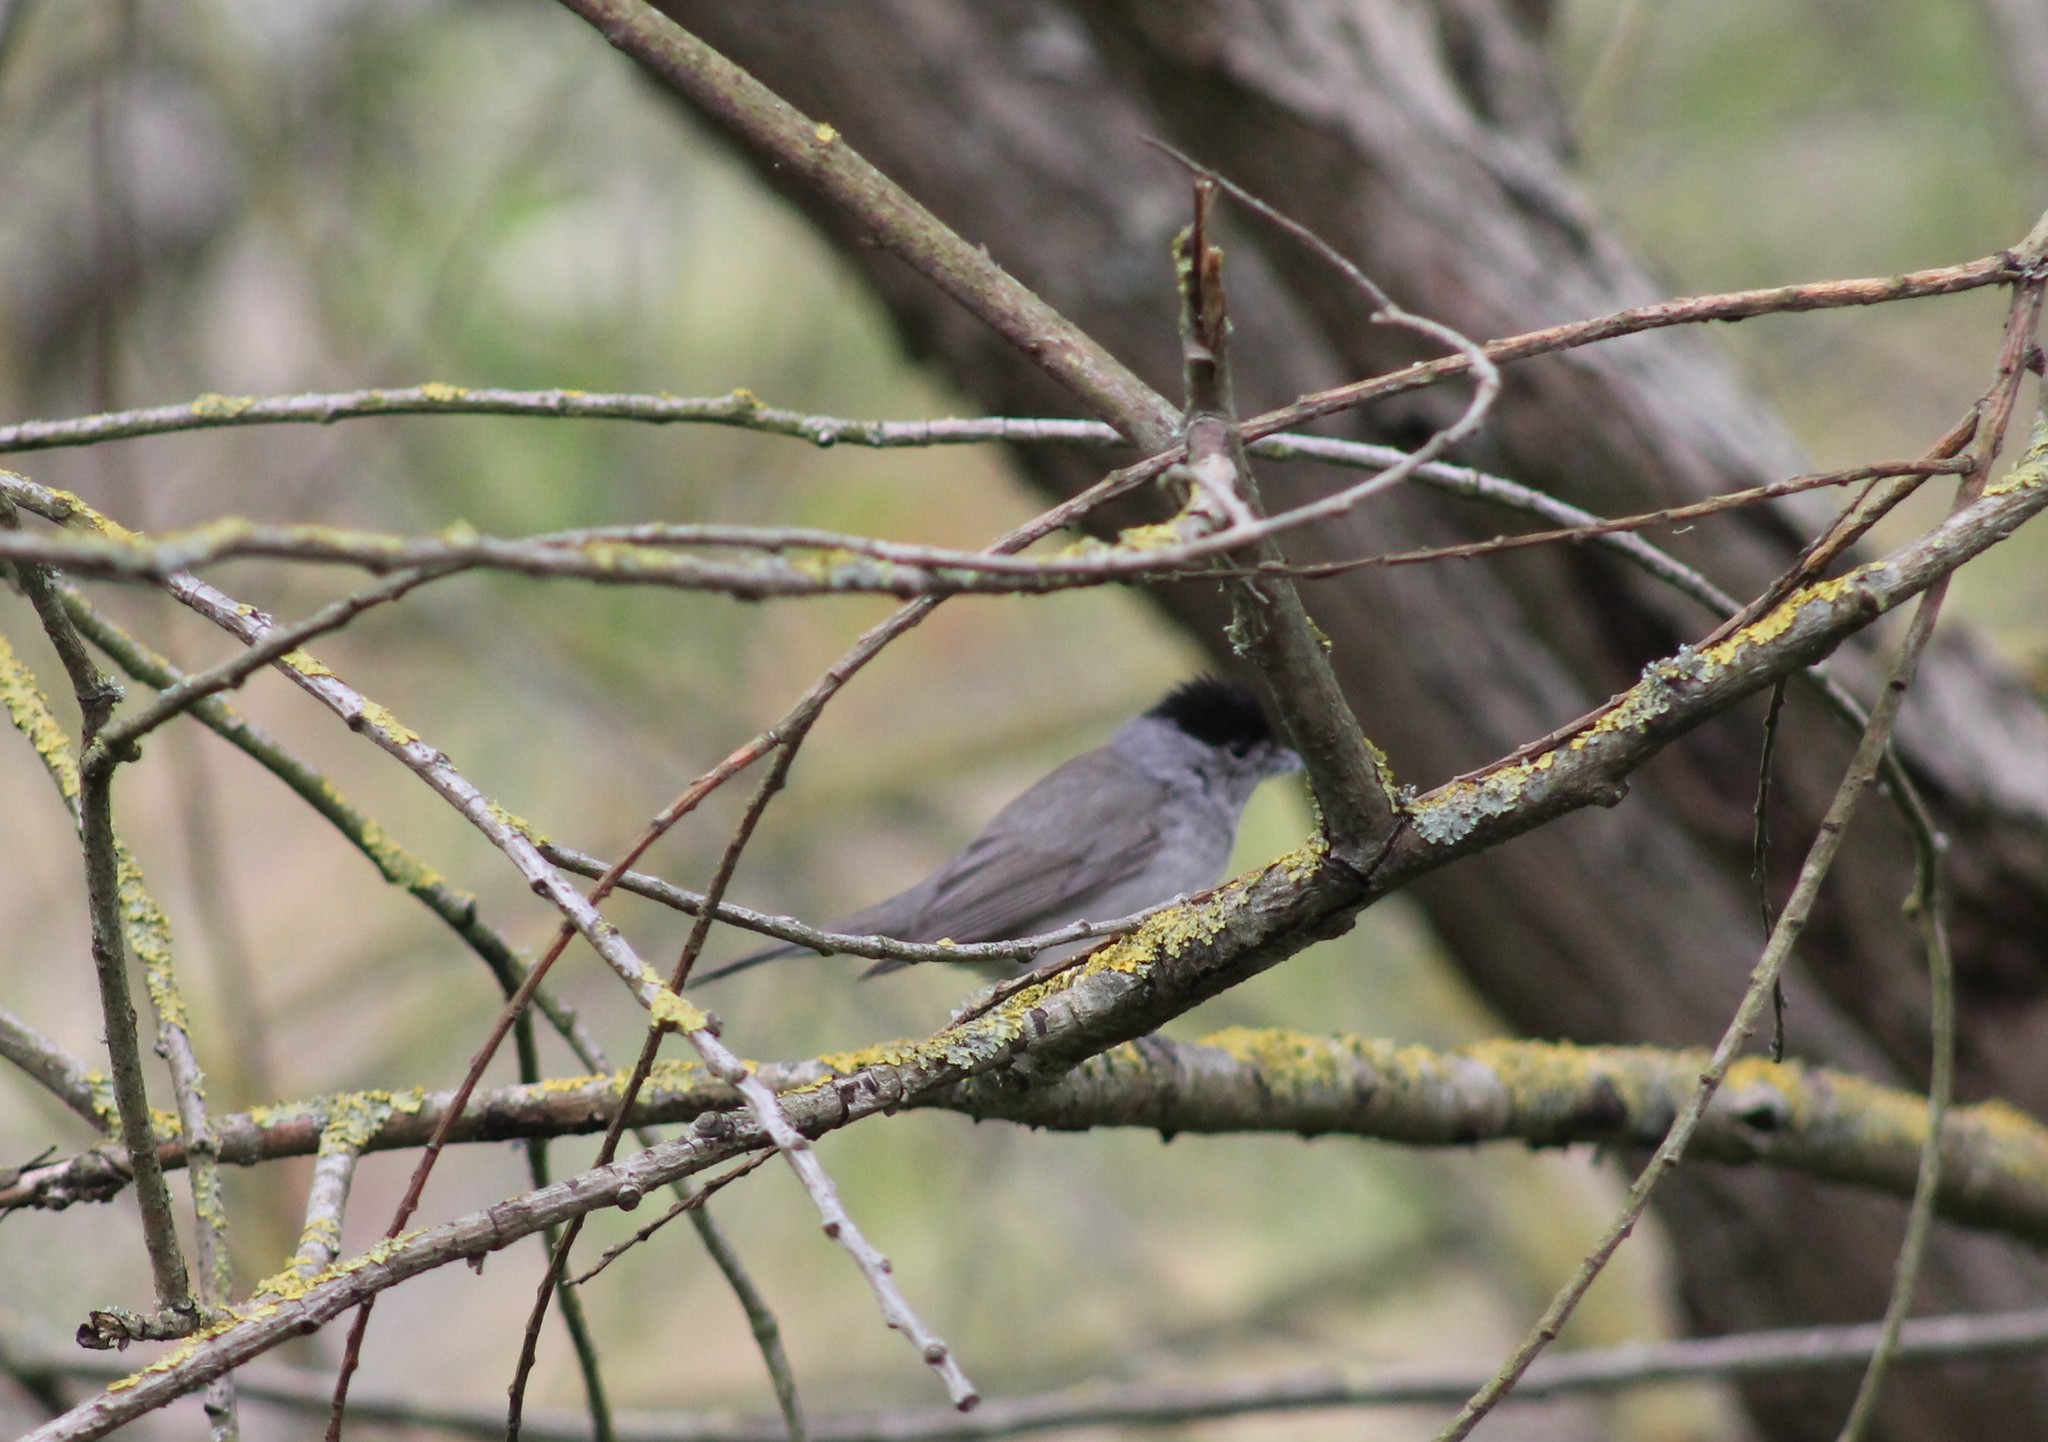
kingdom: Animalia
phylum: Chordata
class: Aves
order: Passeriformes
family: Sylviidae
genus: Sylvia
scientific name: Sylvia atricapilla
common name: Eurasian blackcap
